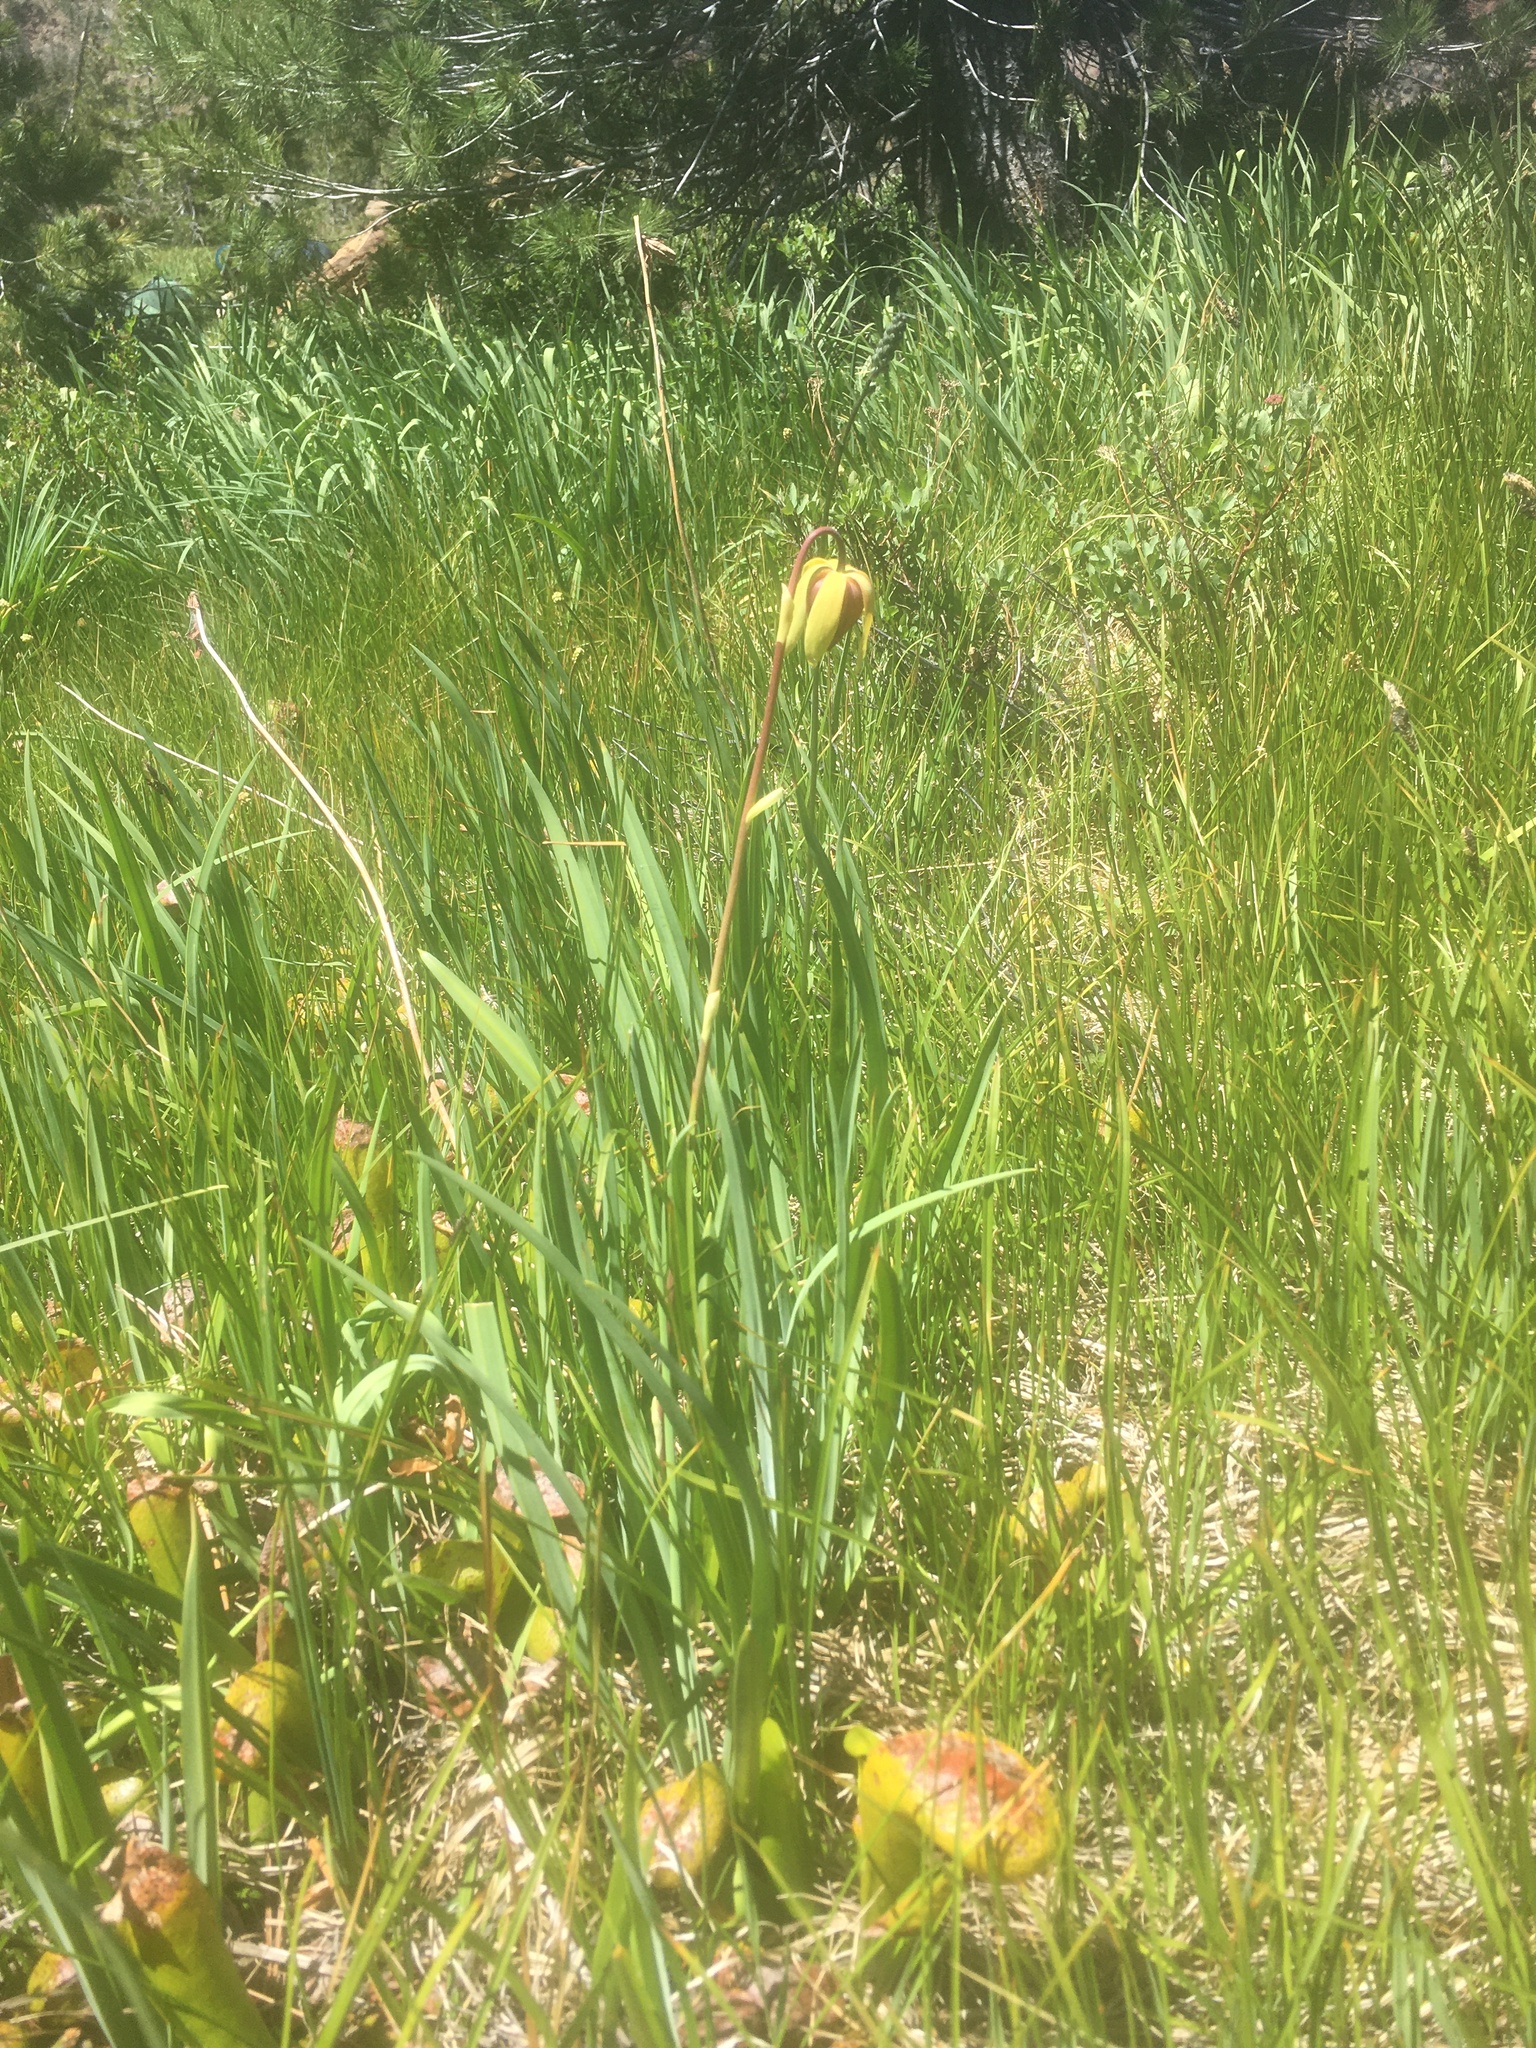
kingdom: Plantae
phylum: Tracheophyta
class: Magnoliopsida
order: Ericales
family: Sarraceniaceae
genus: Darlingtonia
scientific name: Darlingtonia californica
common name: California pitcher plant
